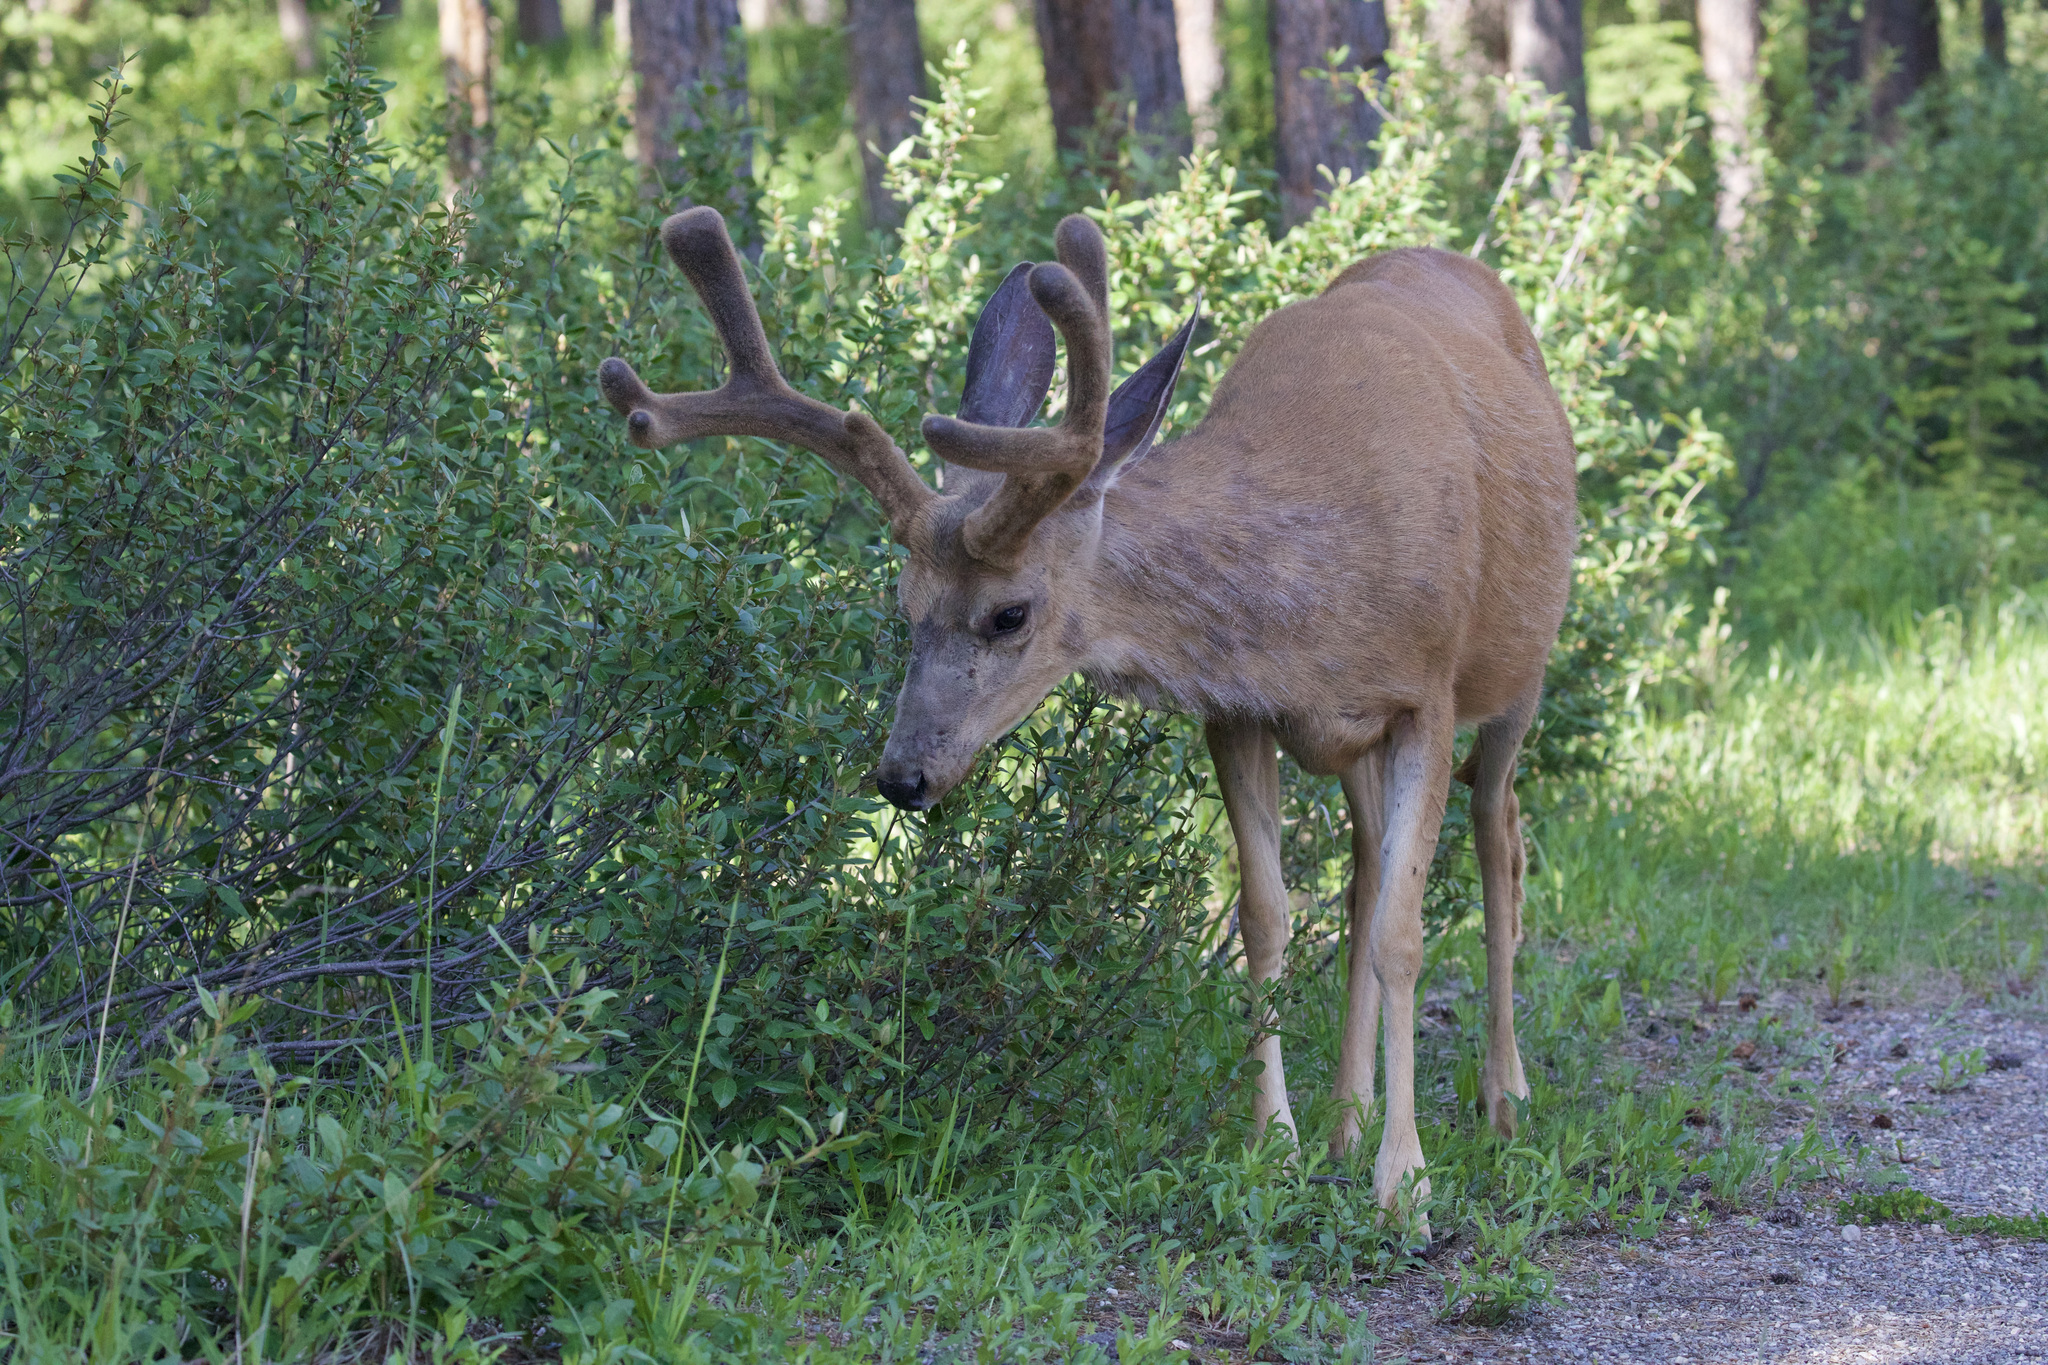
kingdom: Animalia
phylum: Chordata
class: Mammalia
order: Artiodactyla
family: Cervidae
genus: Odocoileus
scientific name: Odocoileus hemionus
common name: Mule deer
